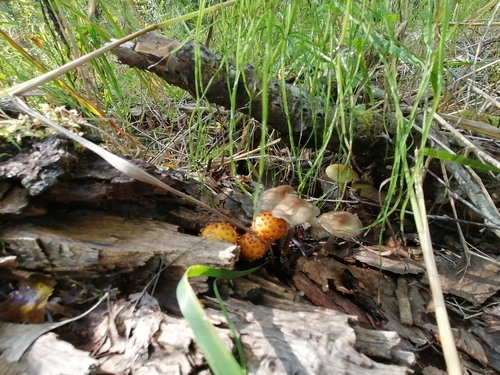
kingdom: Fungi
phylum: Basidiomycota
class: Agaricomycetes
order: Agaricales
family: Strophariaceae
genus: Pholiota
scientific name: Pholiota
